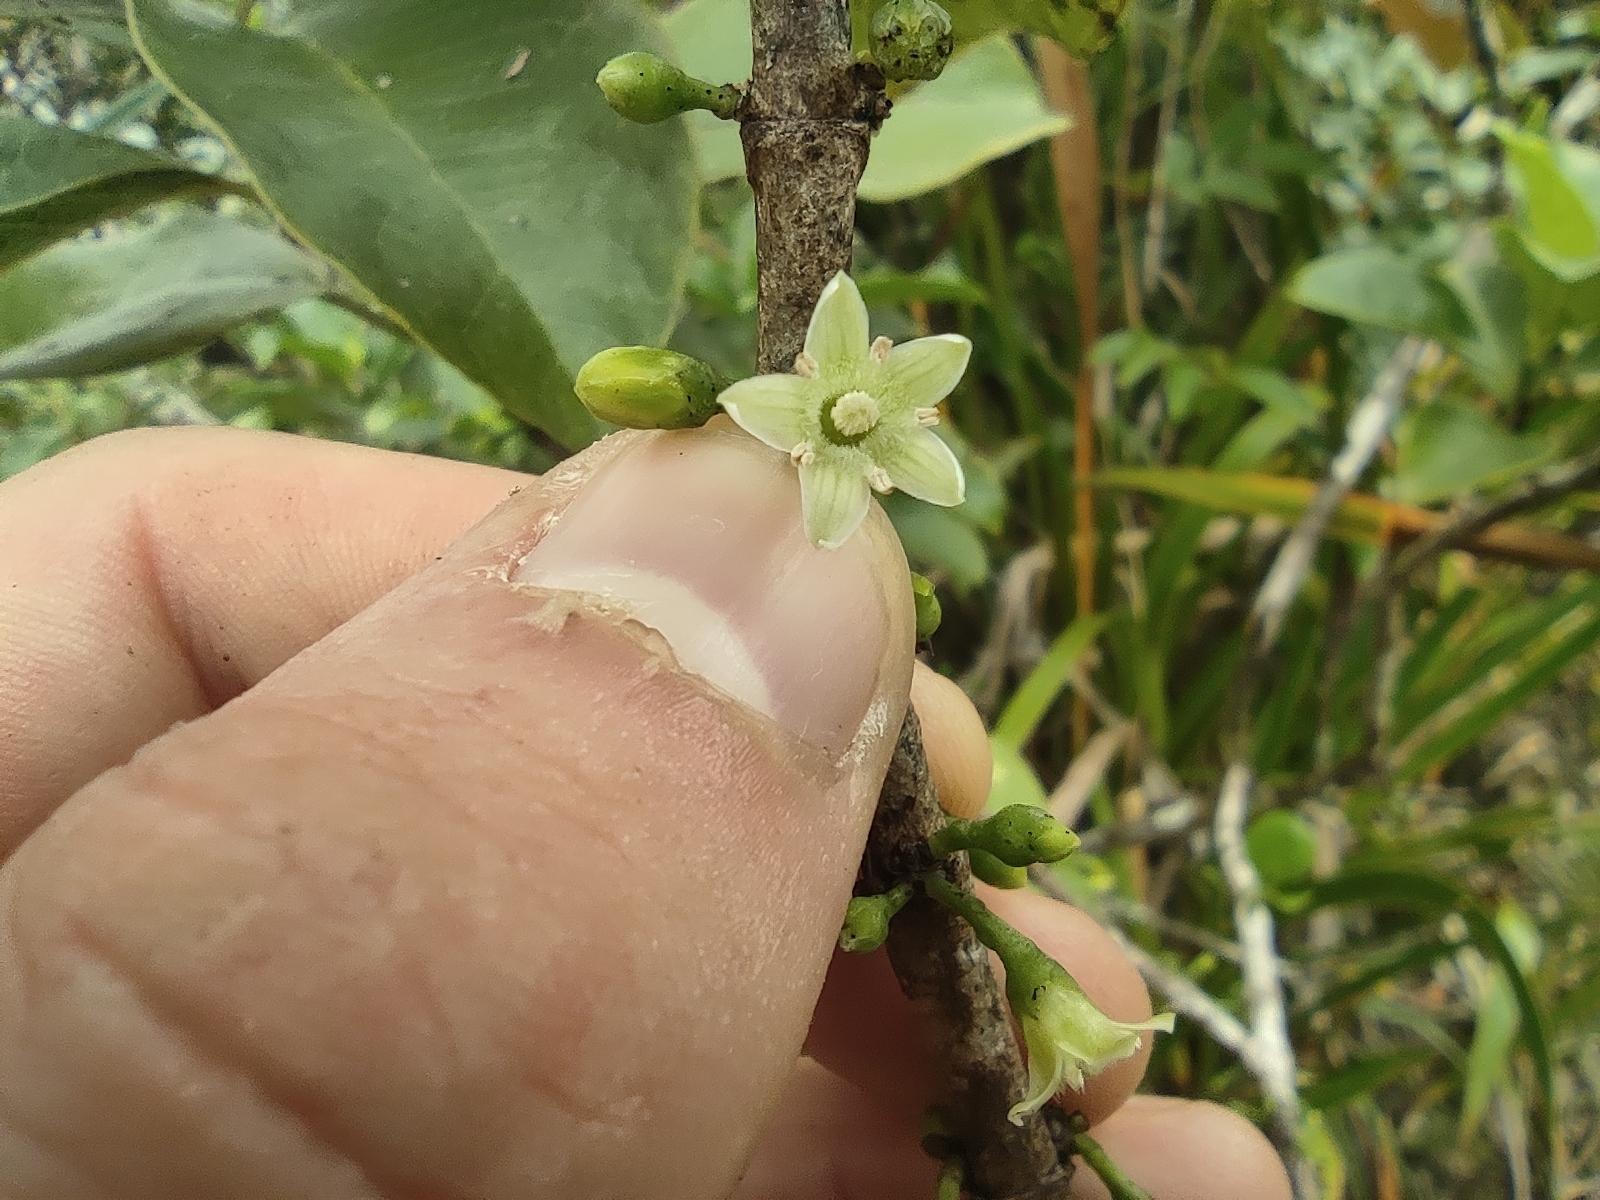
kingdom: Plantae
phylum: Tracheophyta
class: Magnoliopsida
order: Crossosomatales
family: Aphloiaceae
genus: Aphloia
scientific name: Aphloia theiformis
